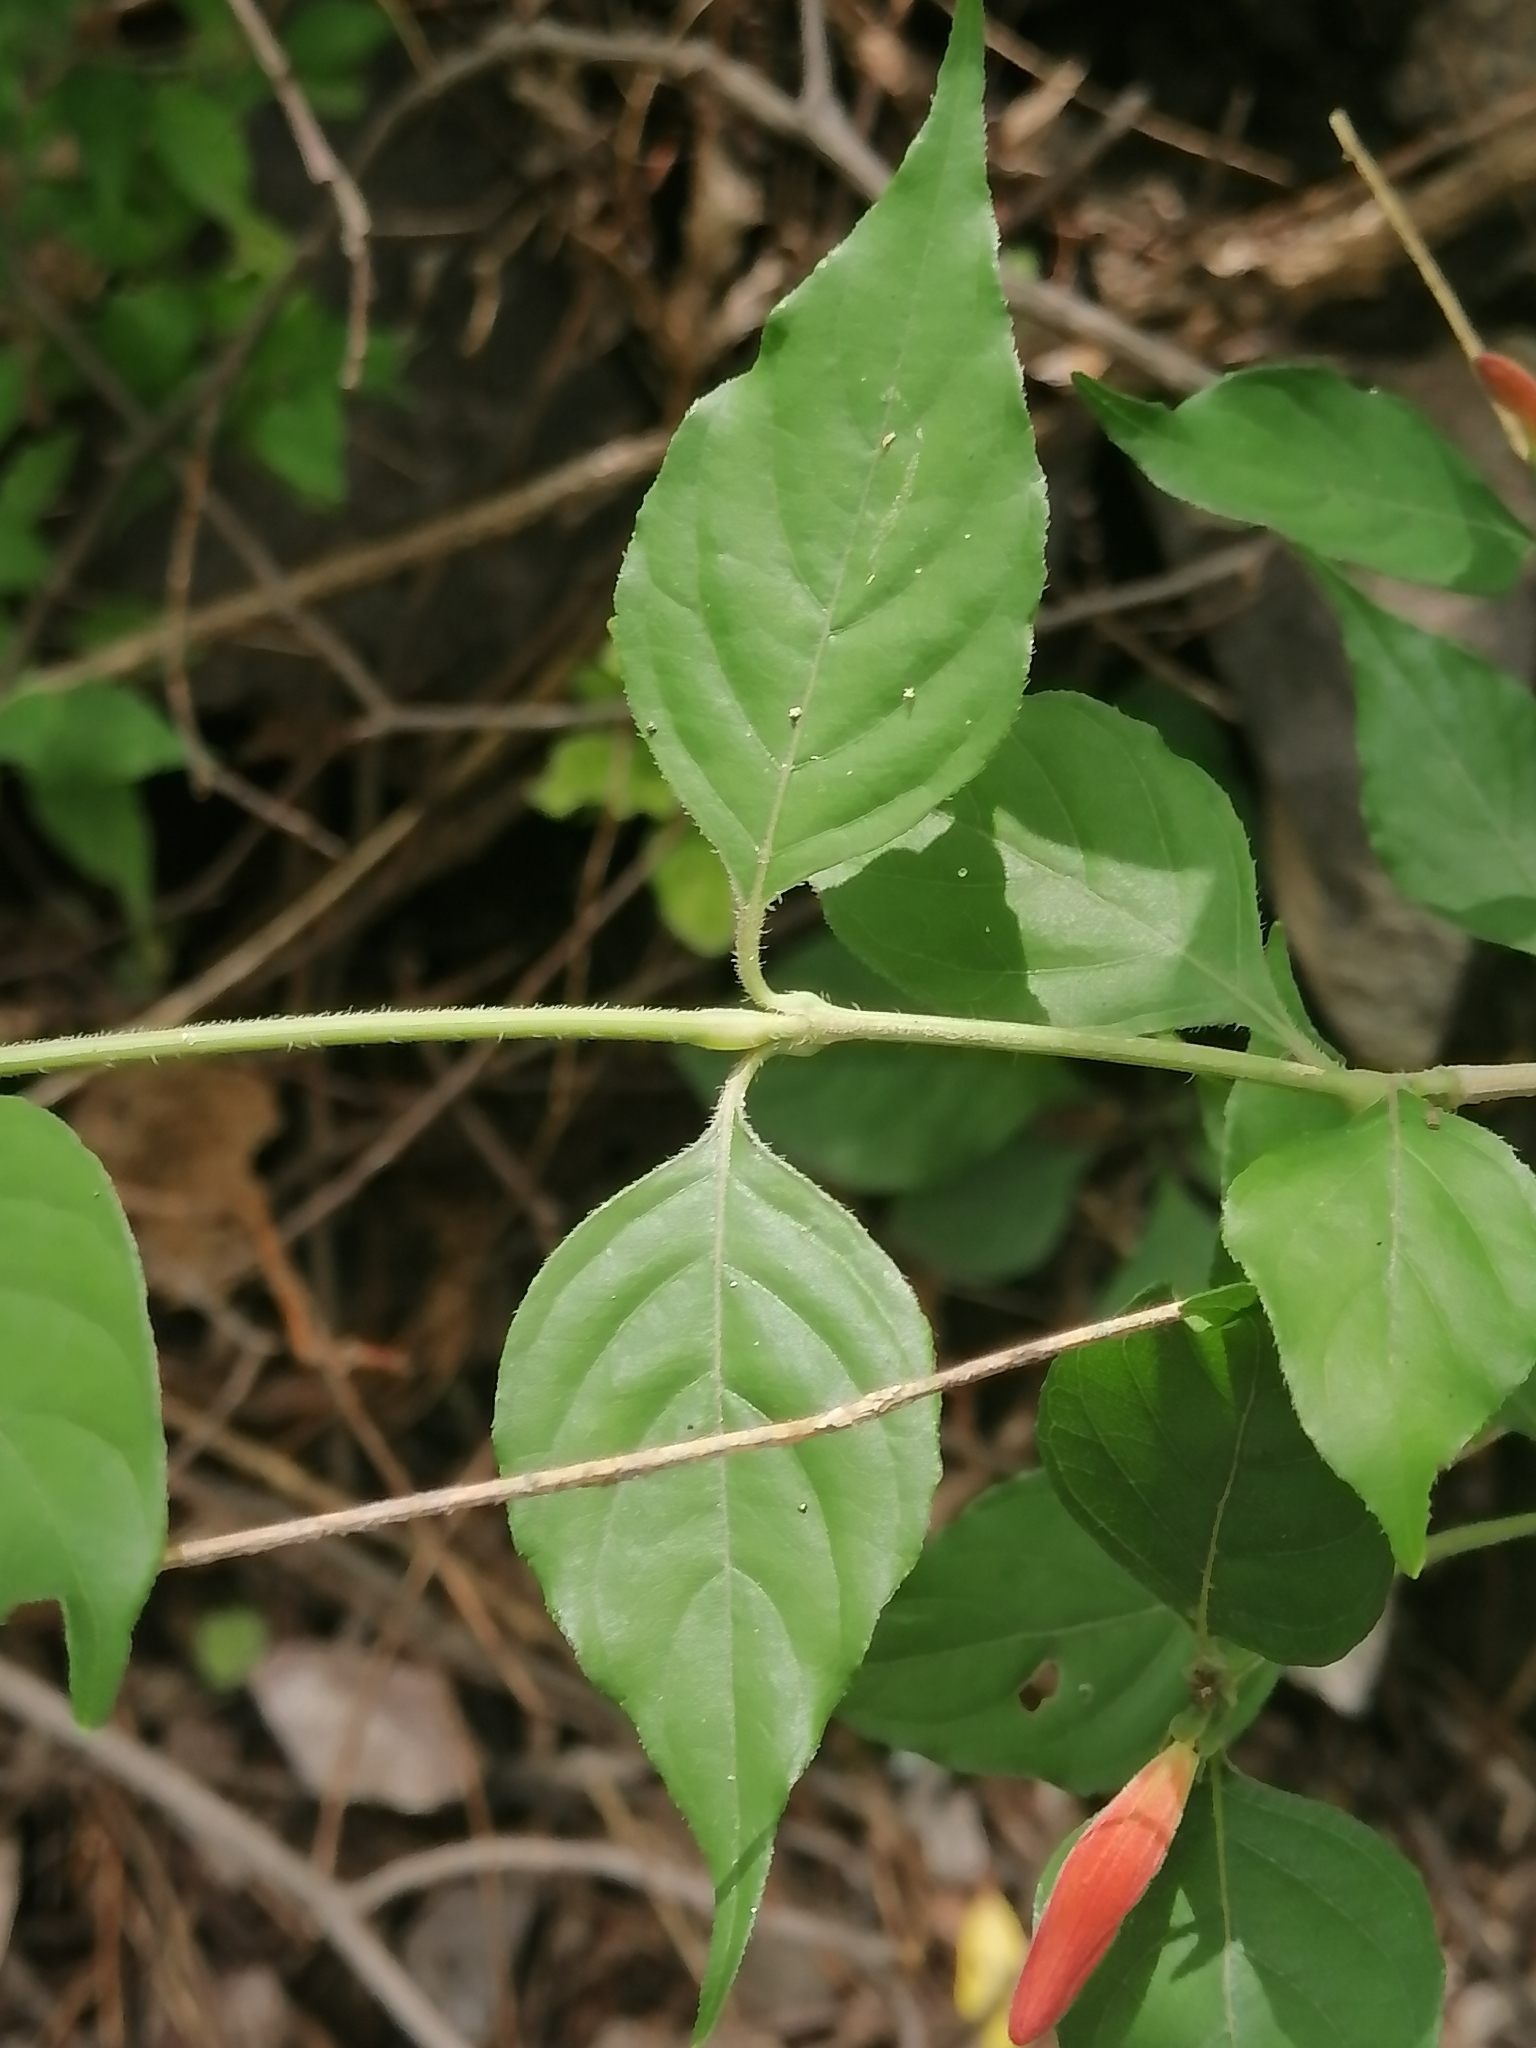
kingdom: Plantae
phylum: Tracheophyta
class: Magnoliopsida
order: Lamiales
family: Acanthaceae
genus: Dianthera
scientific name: Dianthera candicans
